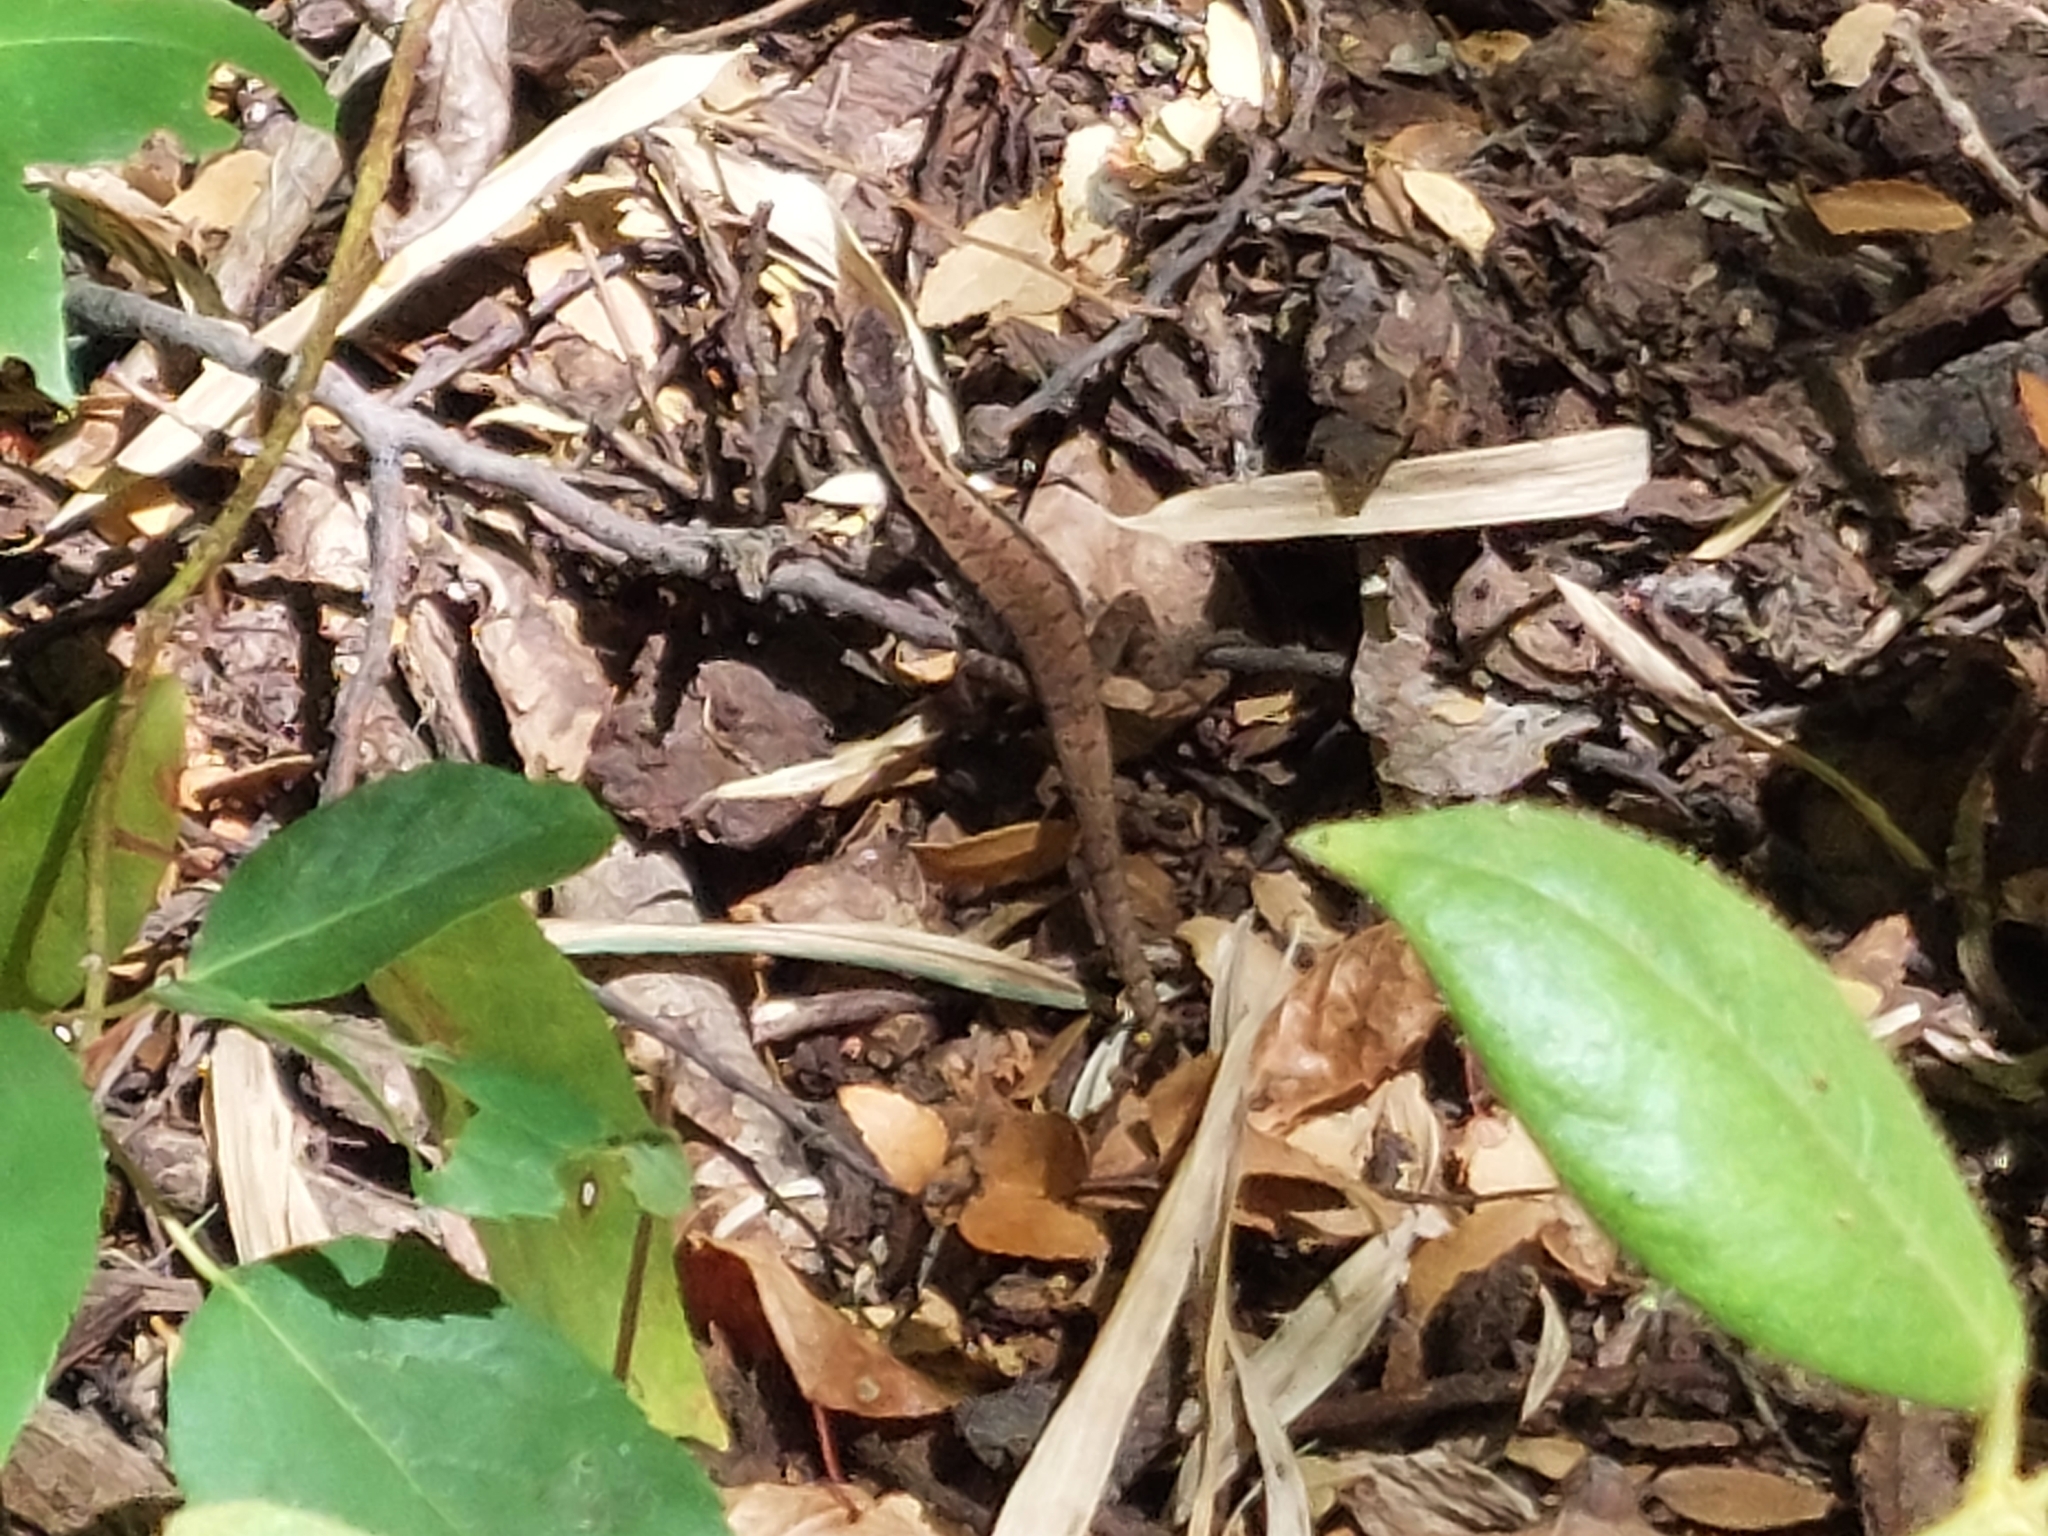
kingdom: Animalia
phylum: Chordata
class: Squamata
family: Liolaemidae
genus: Liolaemus
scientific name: Liolaemus septentrionalis
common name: Painted tree iguana
